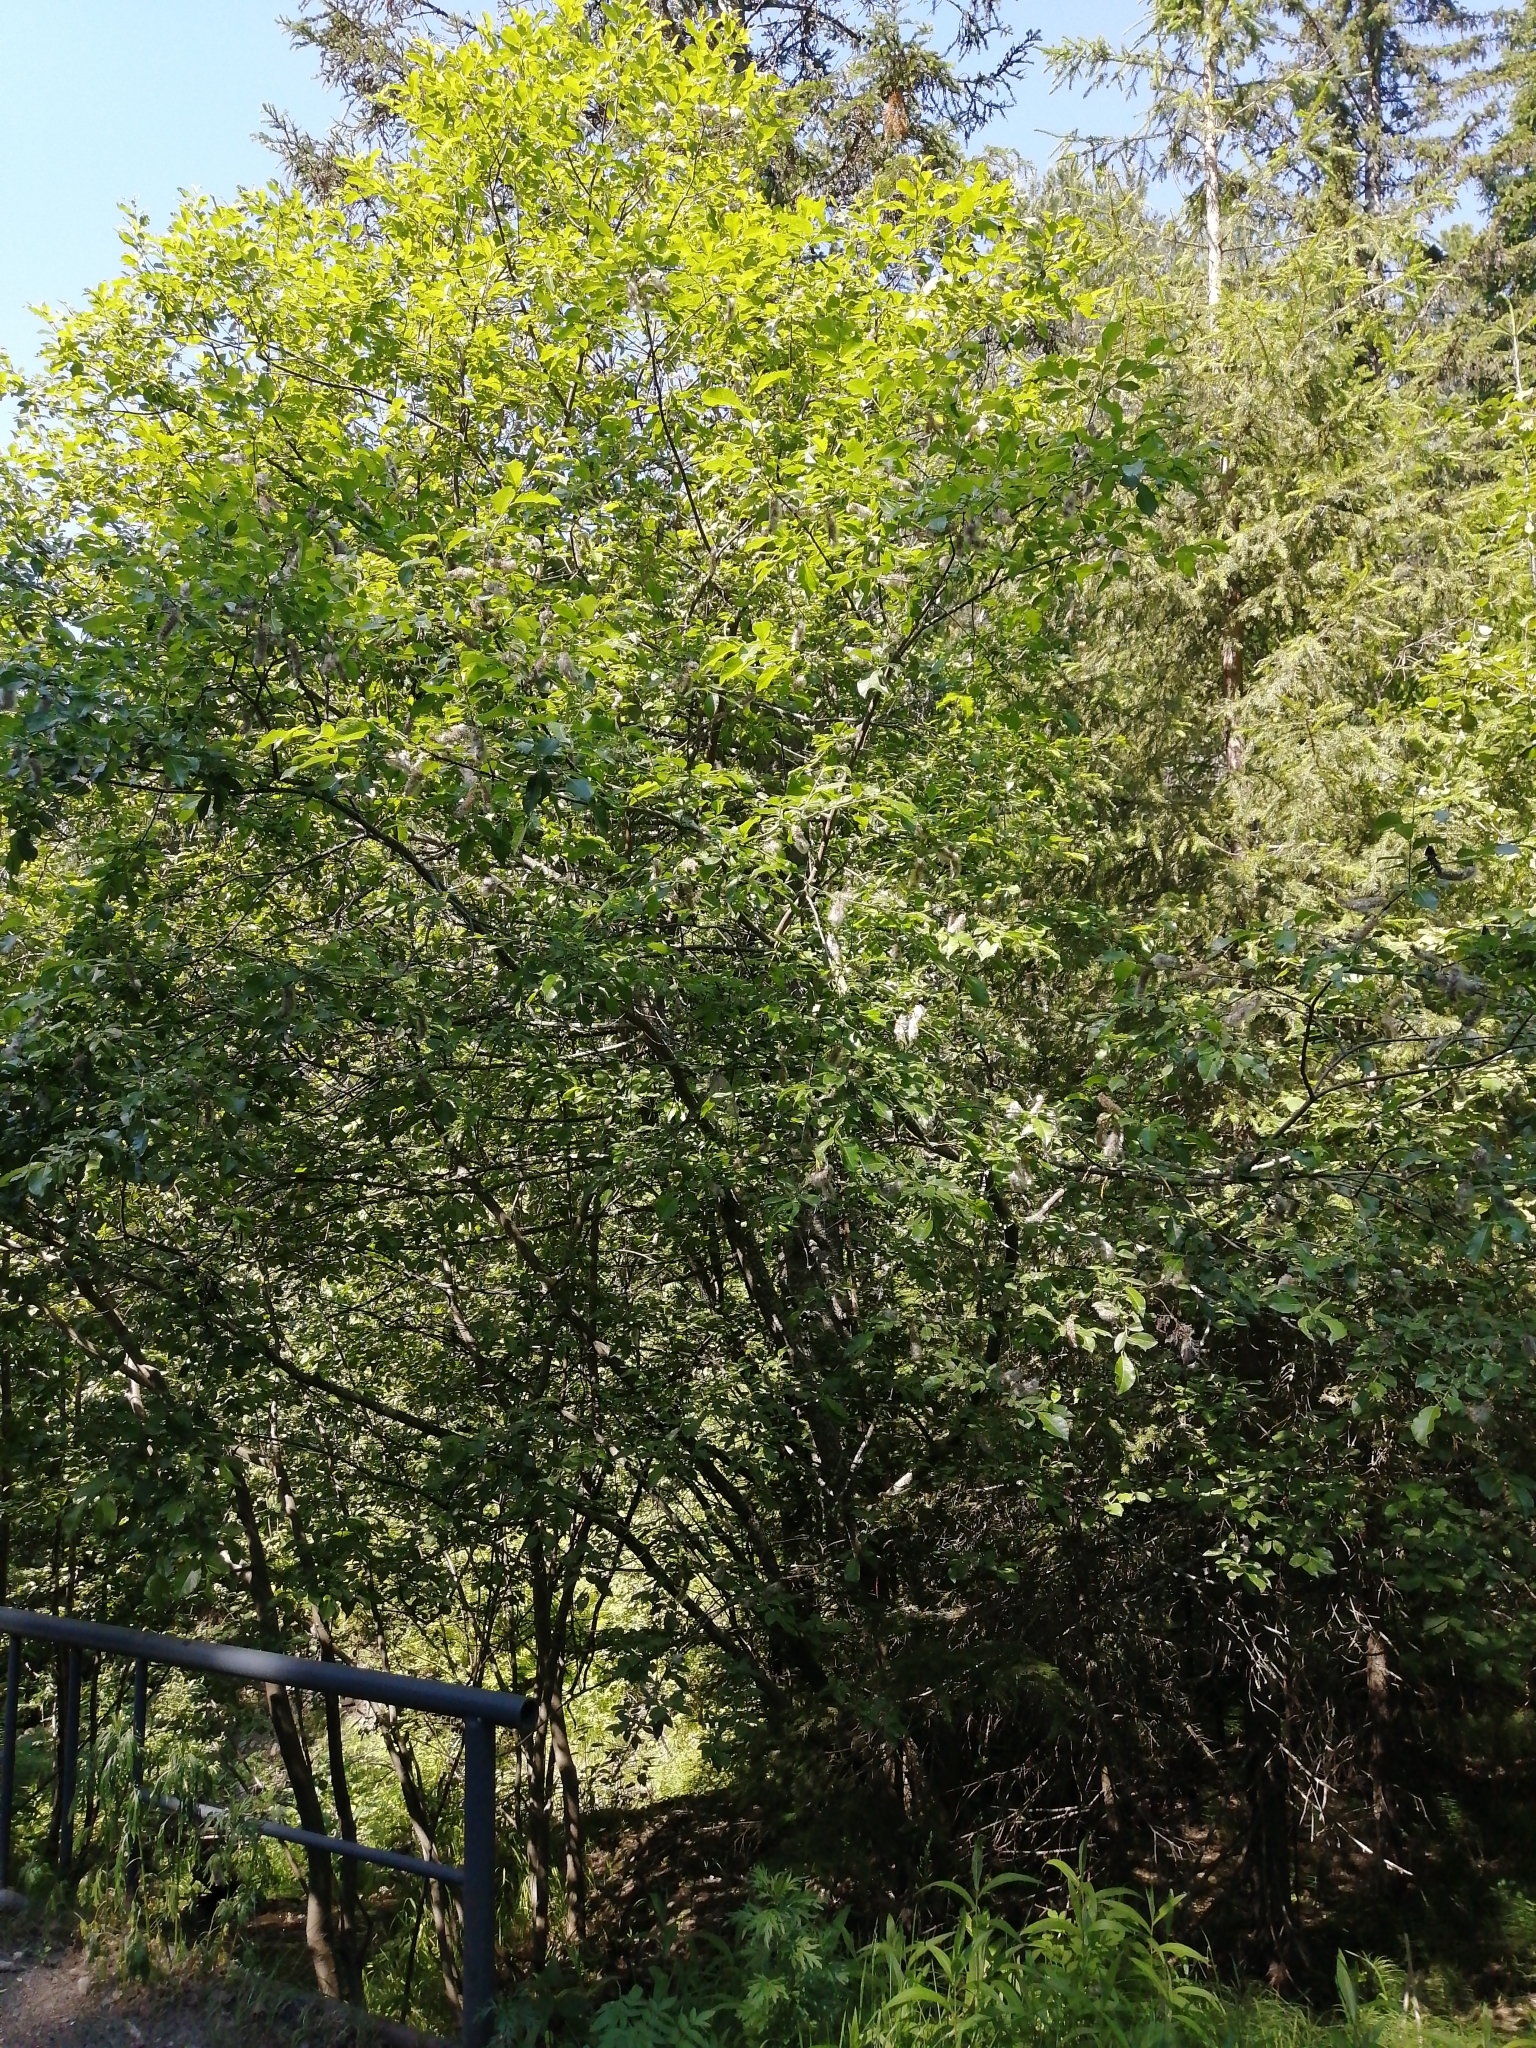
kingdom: Plantae
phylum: Tracheophyta
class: Magnoliopsida
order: Malpighiales
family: Salicaceae
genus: Salix
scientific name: Salix caprea
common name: Goat willow
